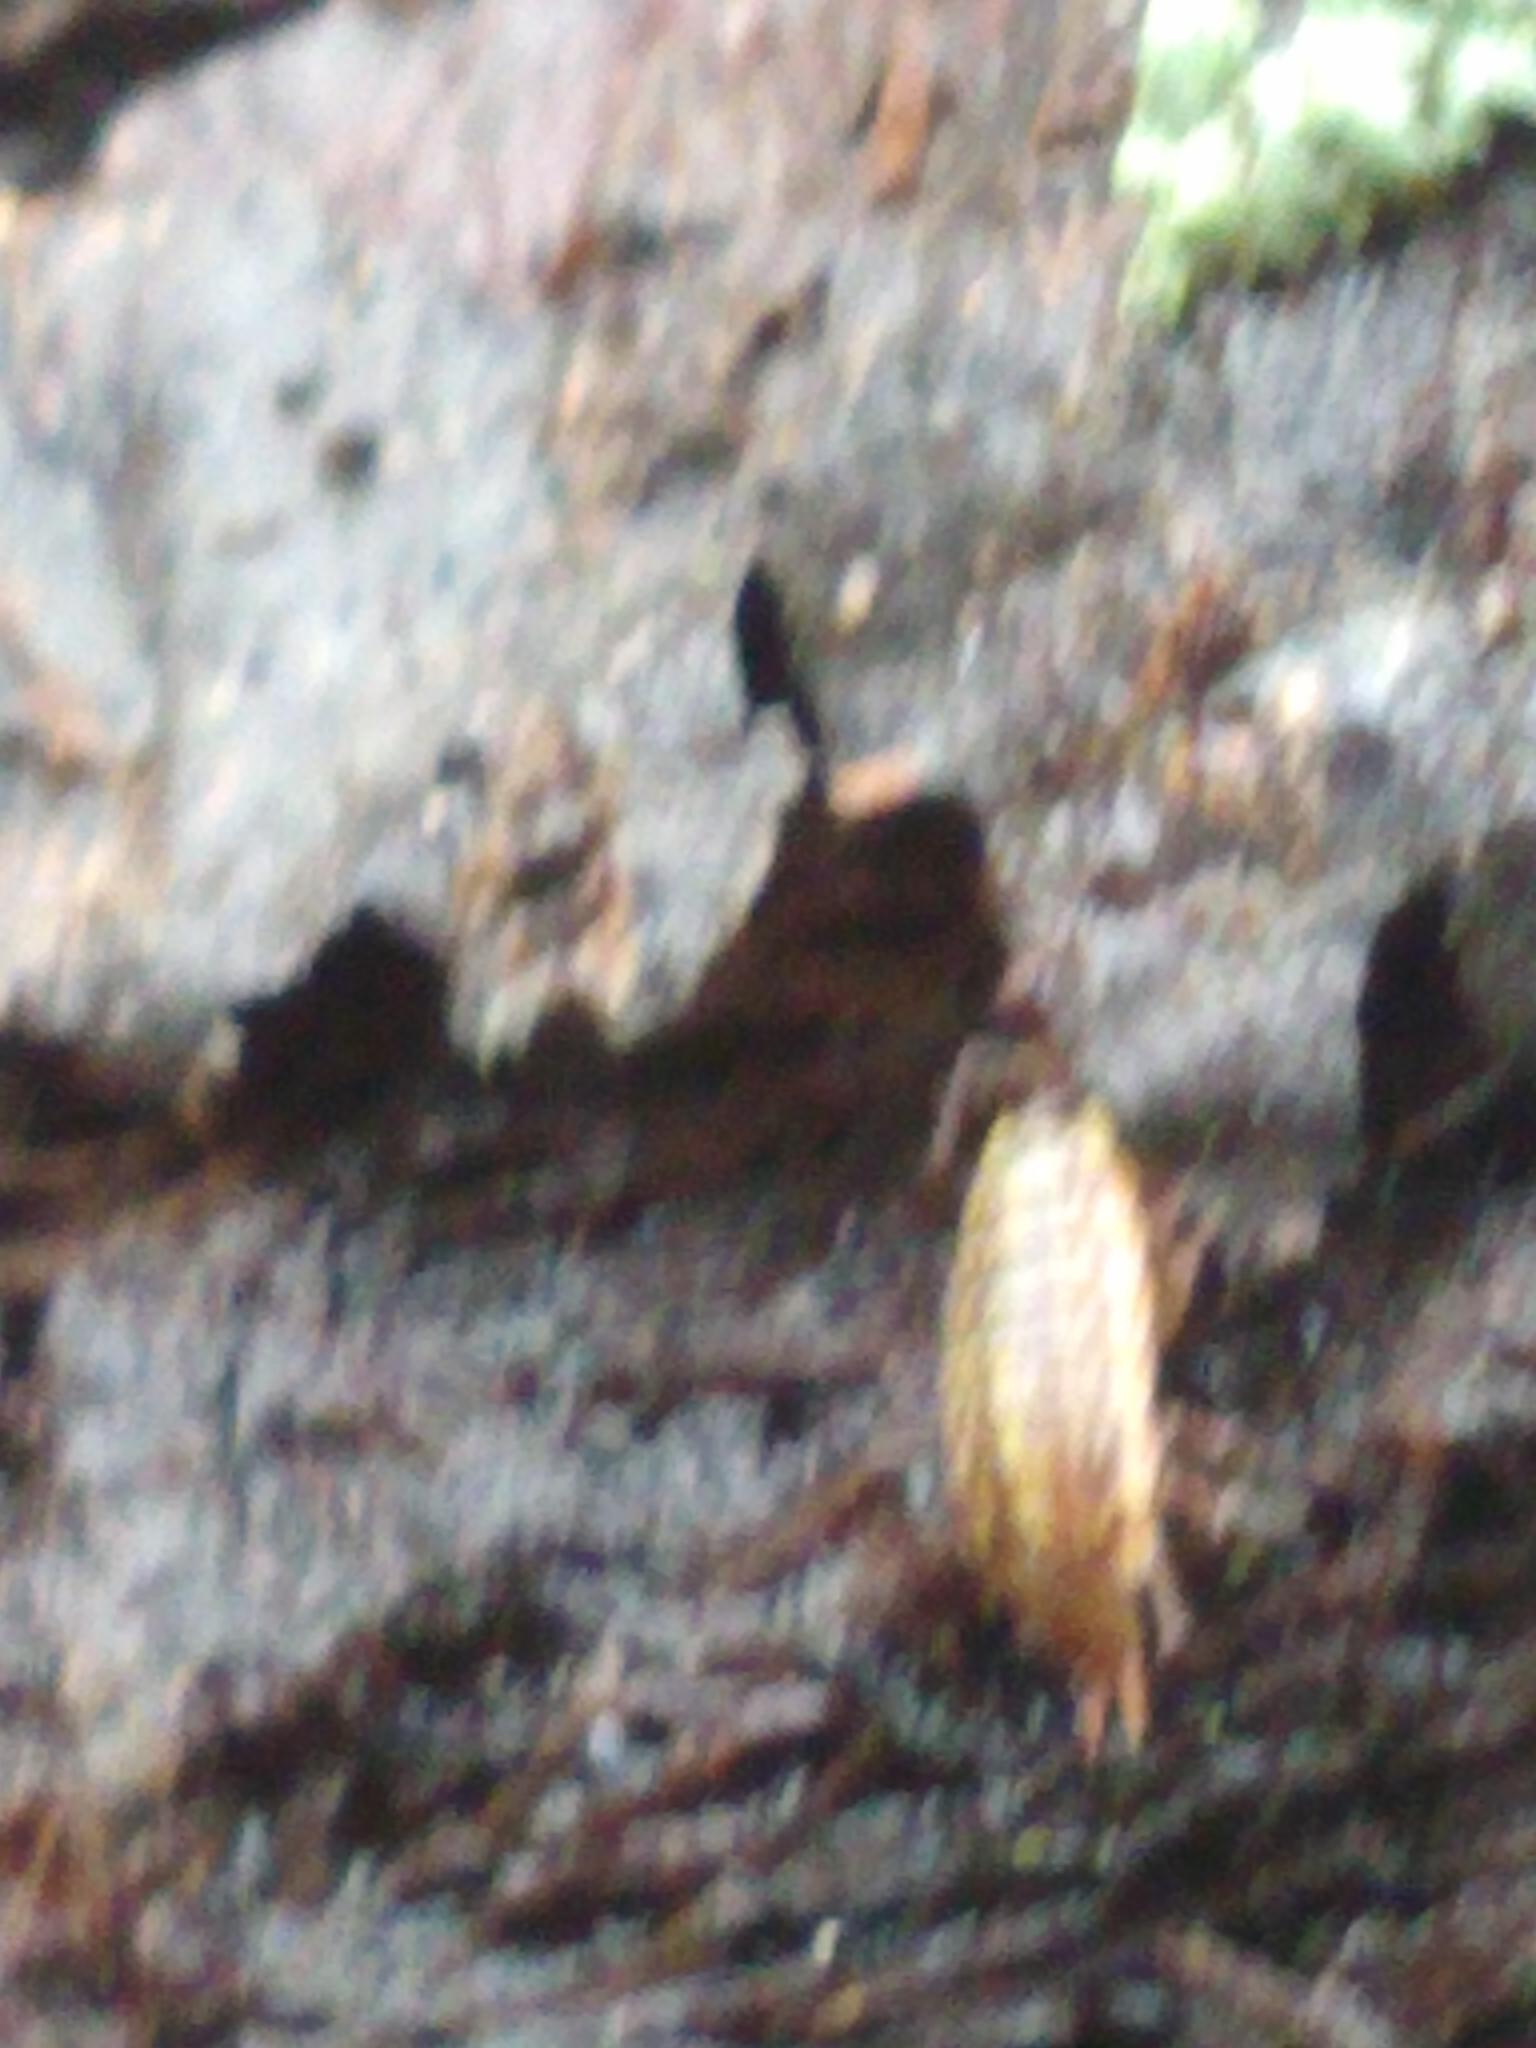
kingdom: Animalia
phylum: Arthropoda
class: Malacostraca
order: Isopoda
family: Philosciidae
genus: Philoscia
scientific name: Philoscia muscorum
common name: Common striped woodlouse
